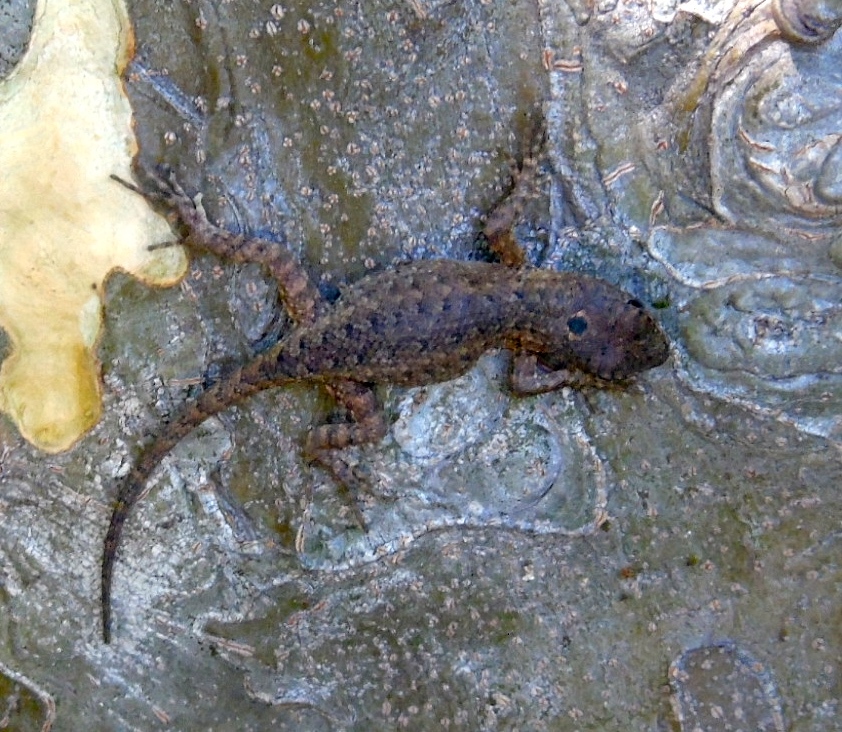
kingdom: Animalia
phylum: Chordata
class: Squamata
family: Phrynosomatidae
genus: Sceloporus
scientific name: Sceloporus nelsoni
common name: Nelson's spiny lizard
